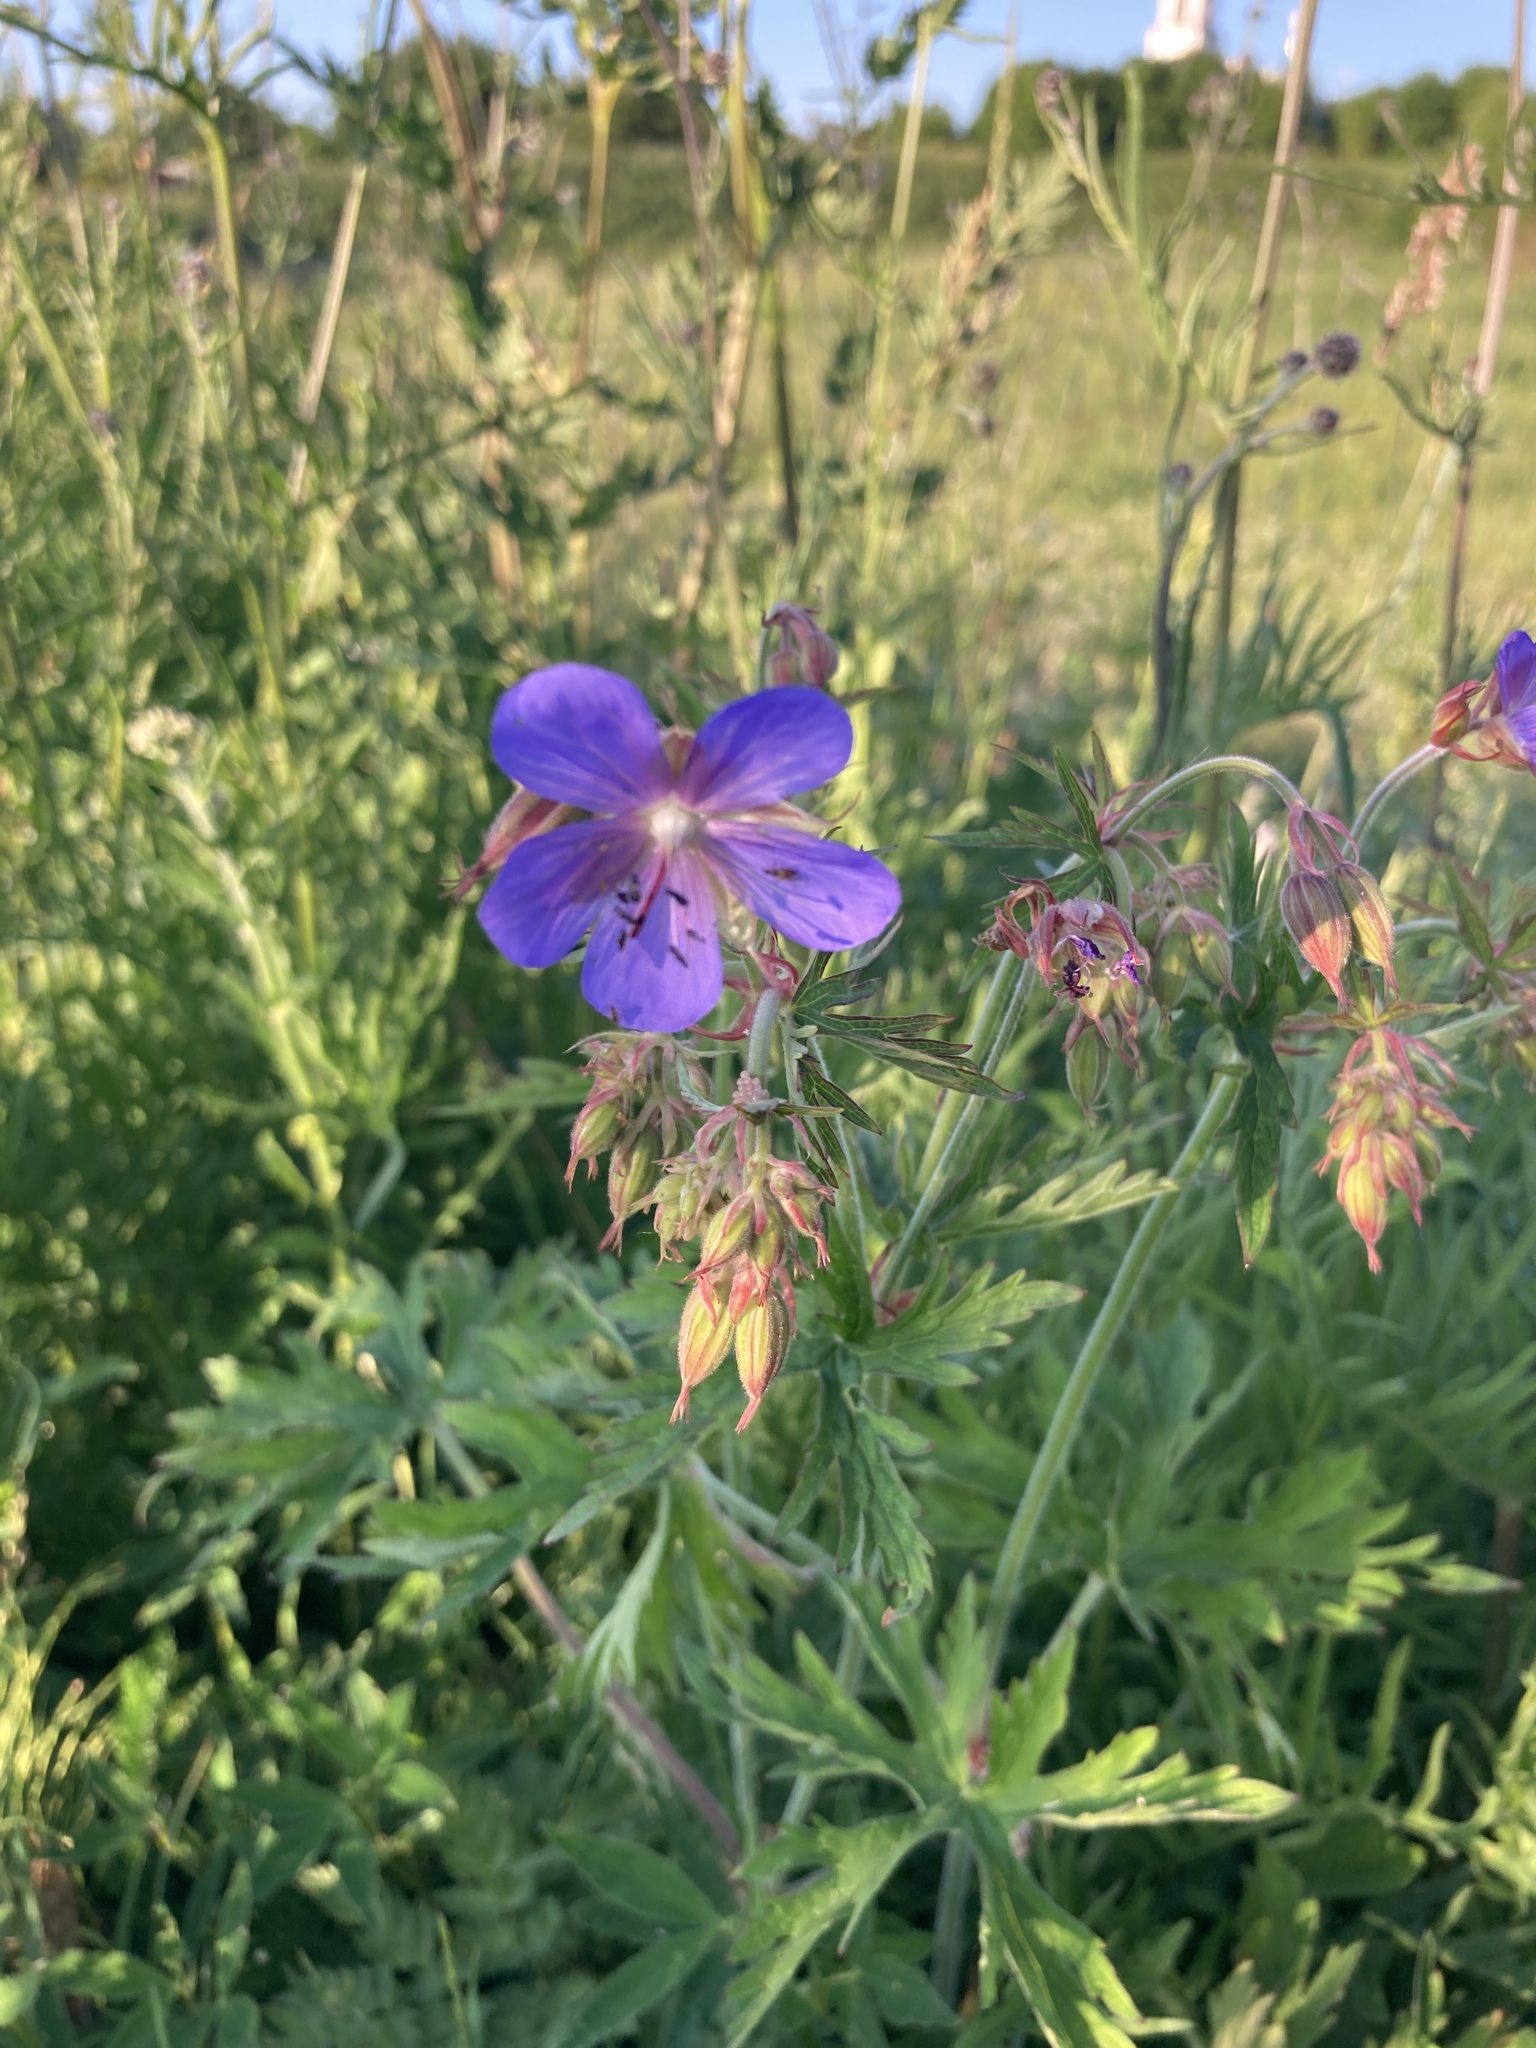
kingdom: Plantae
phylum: Tracheophyta
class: Magnoliopsida
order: Geraniales
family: Geraniaceae
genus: Geranium
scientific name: Geranium pratense
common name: Meadow crane's-bill
